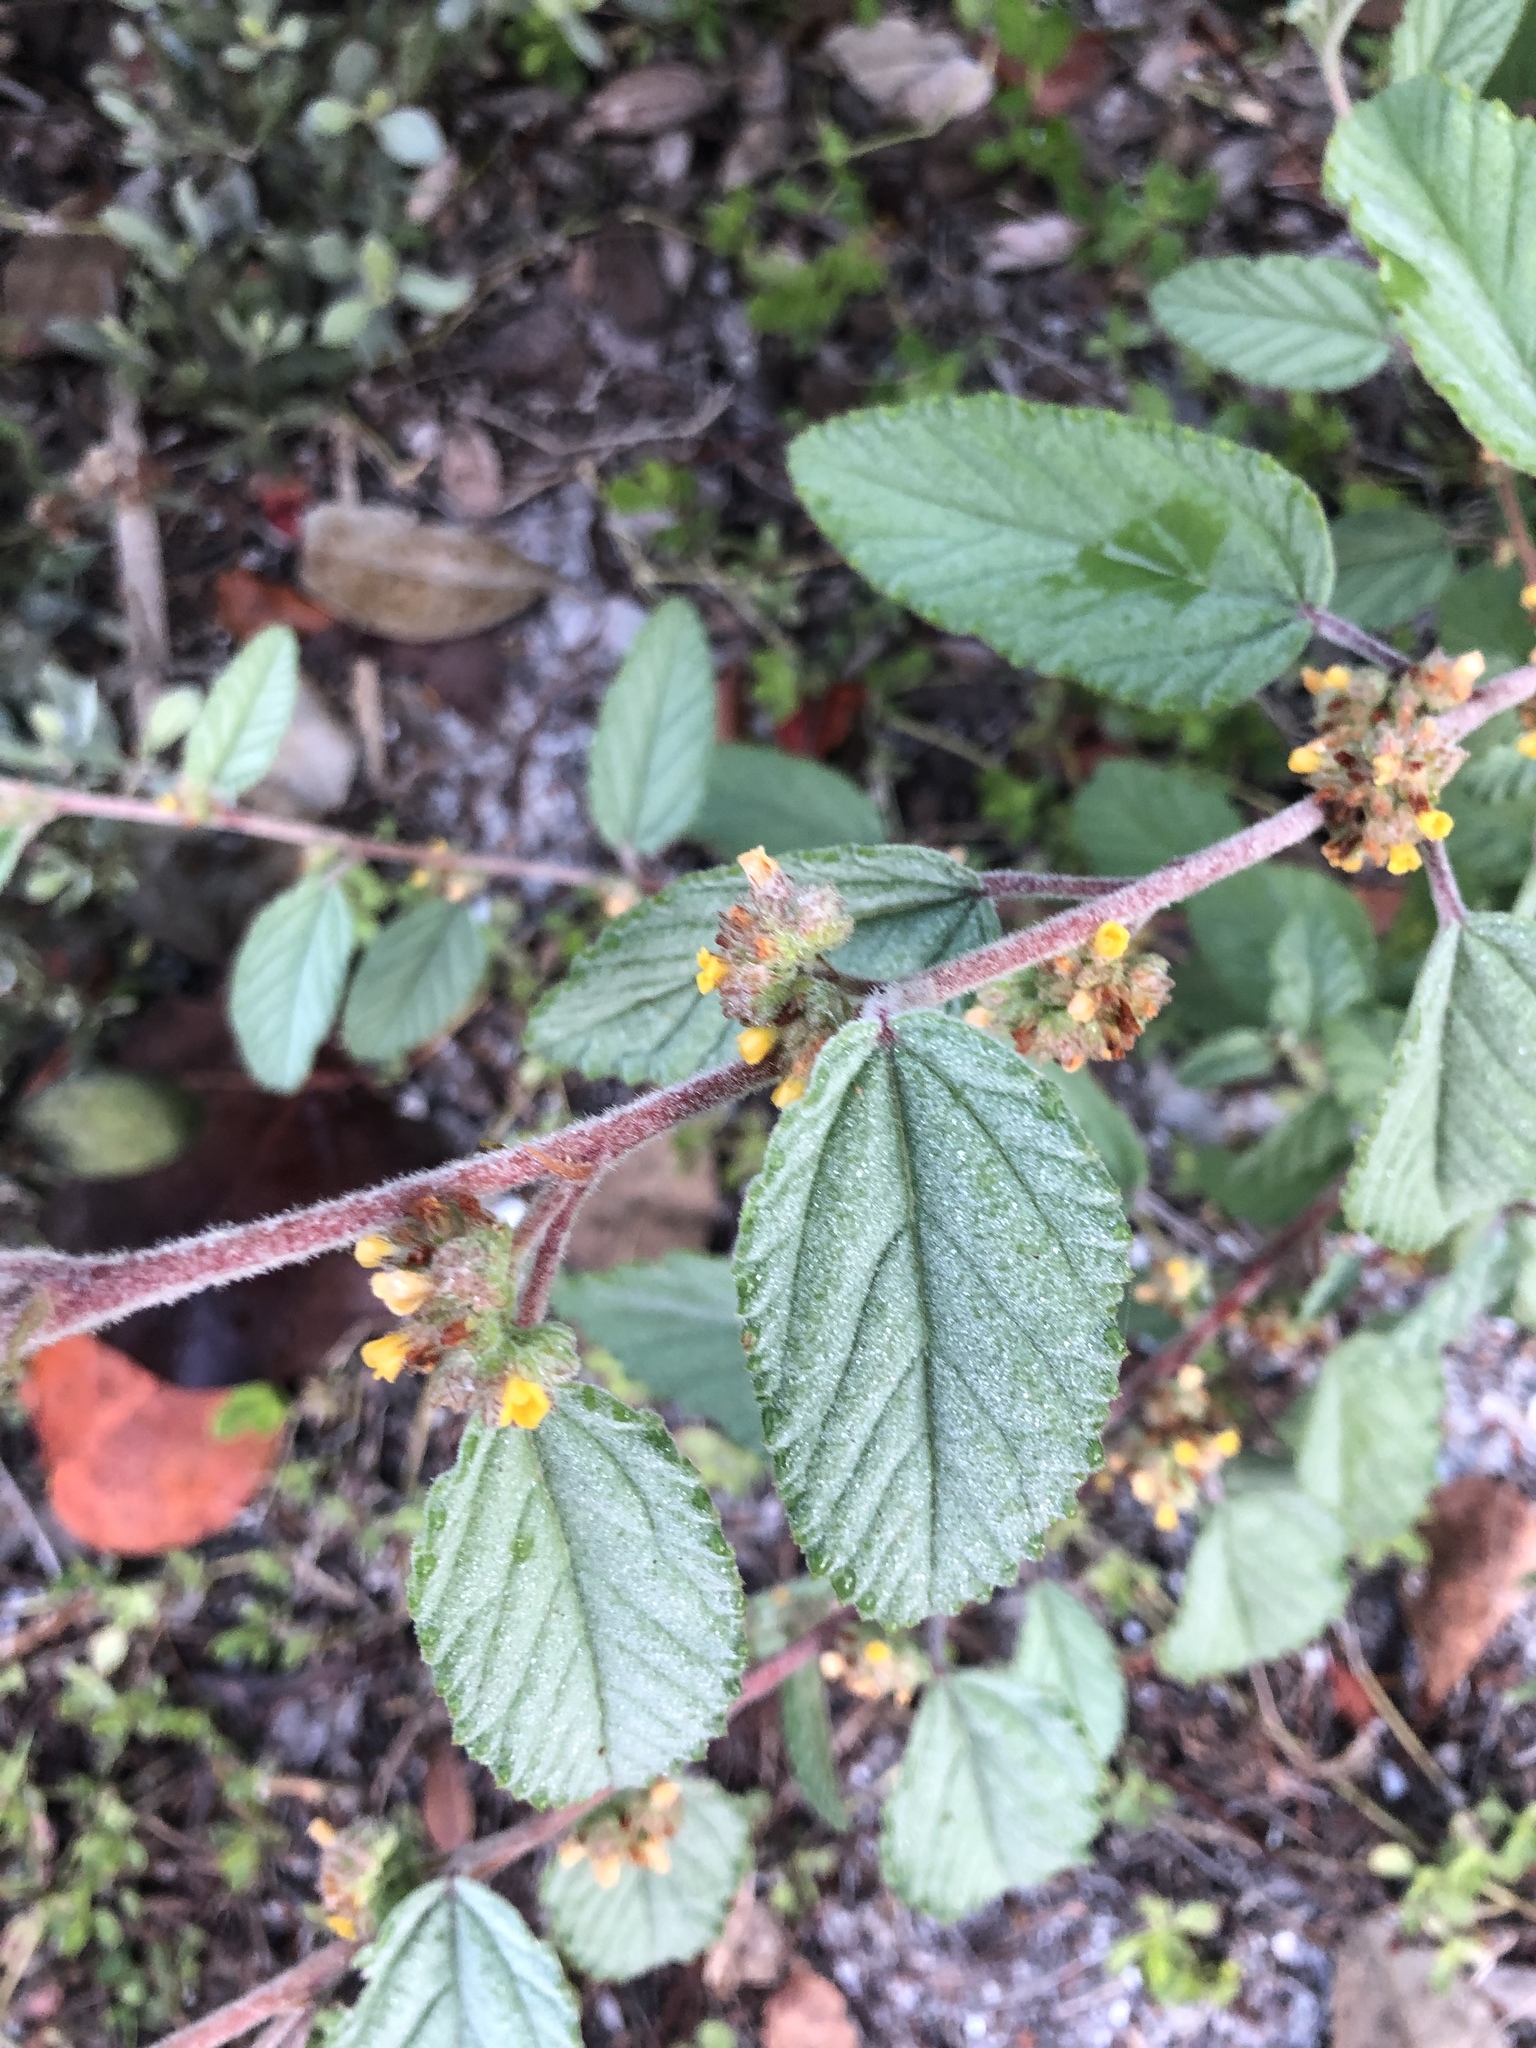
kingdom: Plantae
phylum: Tracheophyta
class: Magnoliopsida
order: Malvales
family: Malvaceae
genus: Waltheria
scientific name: Waltheria indica
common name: Leather-coat
